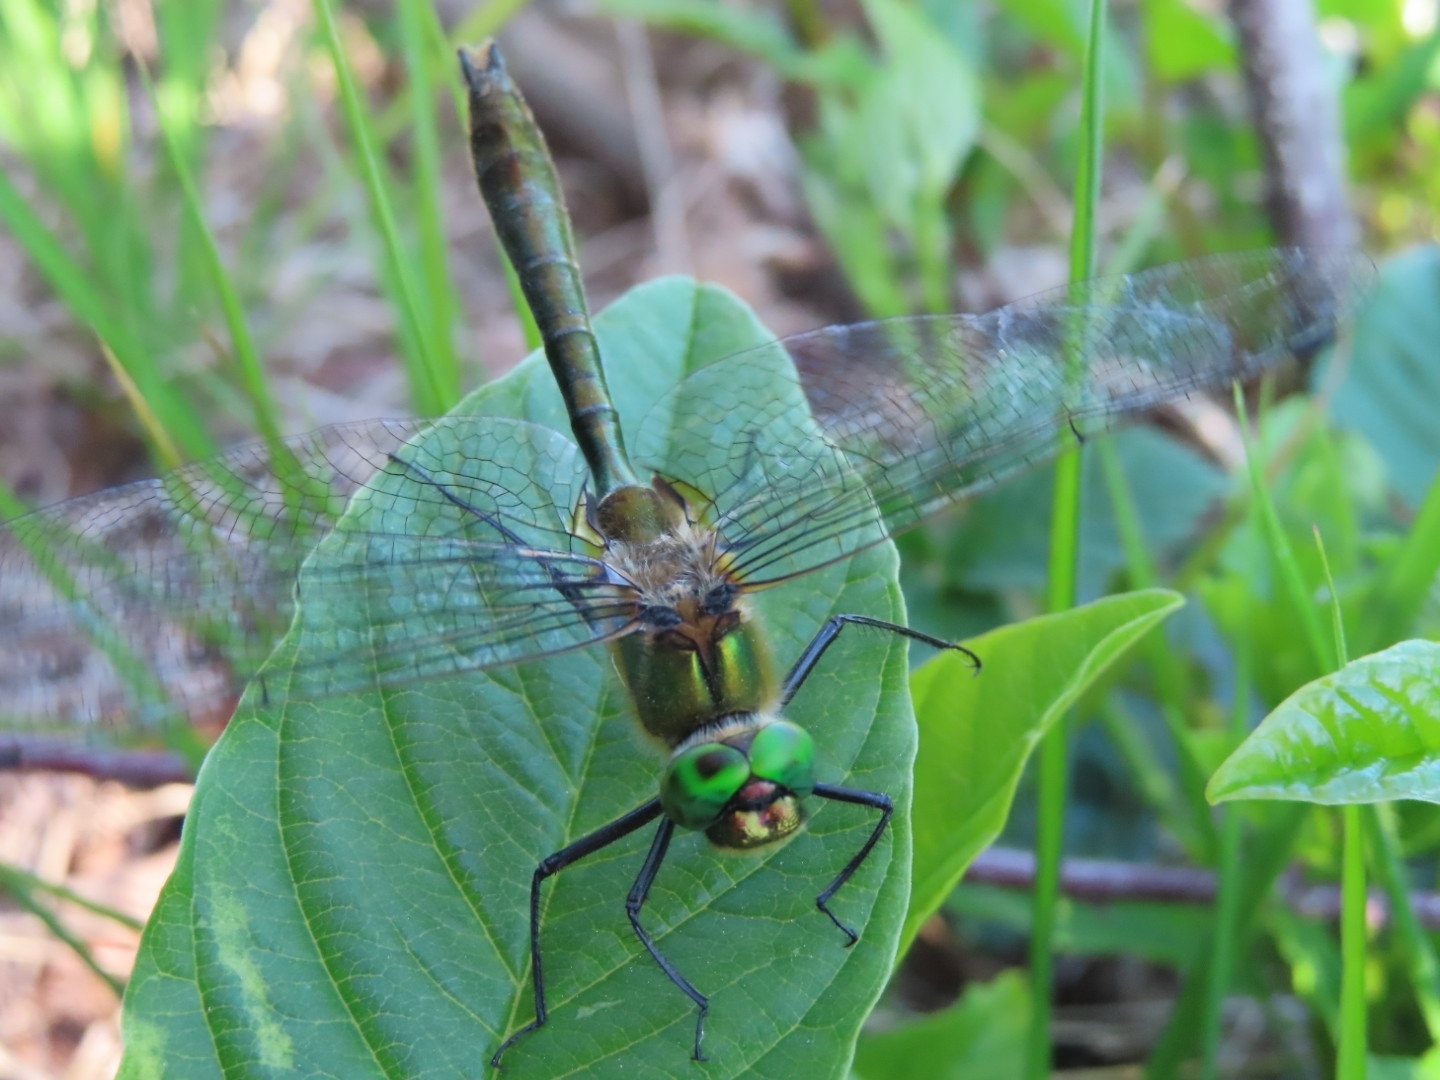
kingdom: Animalia
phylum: Arthropoda
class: Insecta
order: Odonata
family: Corduliidae
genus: Cordulia
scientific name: Cordulia aenea
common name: Downy emerald
